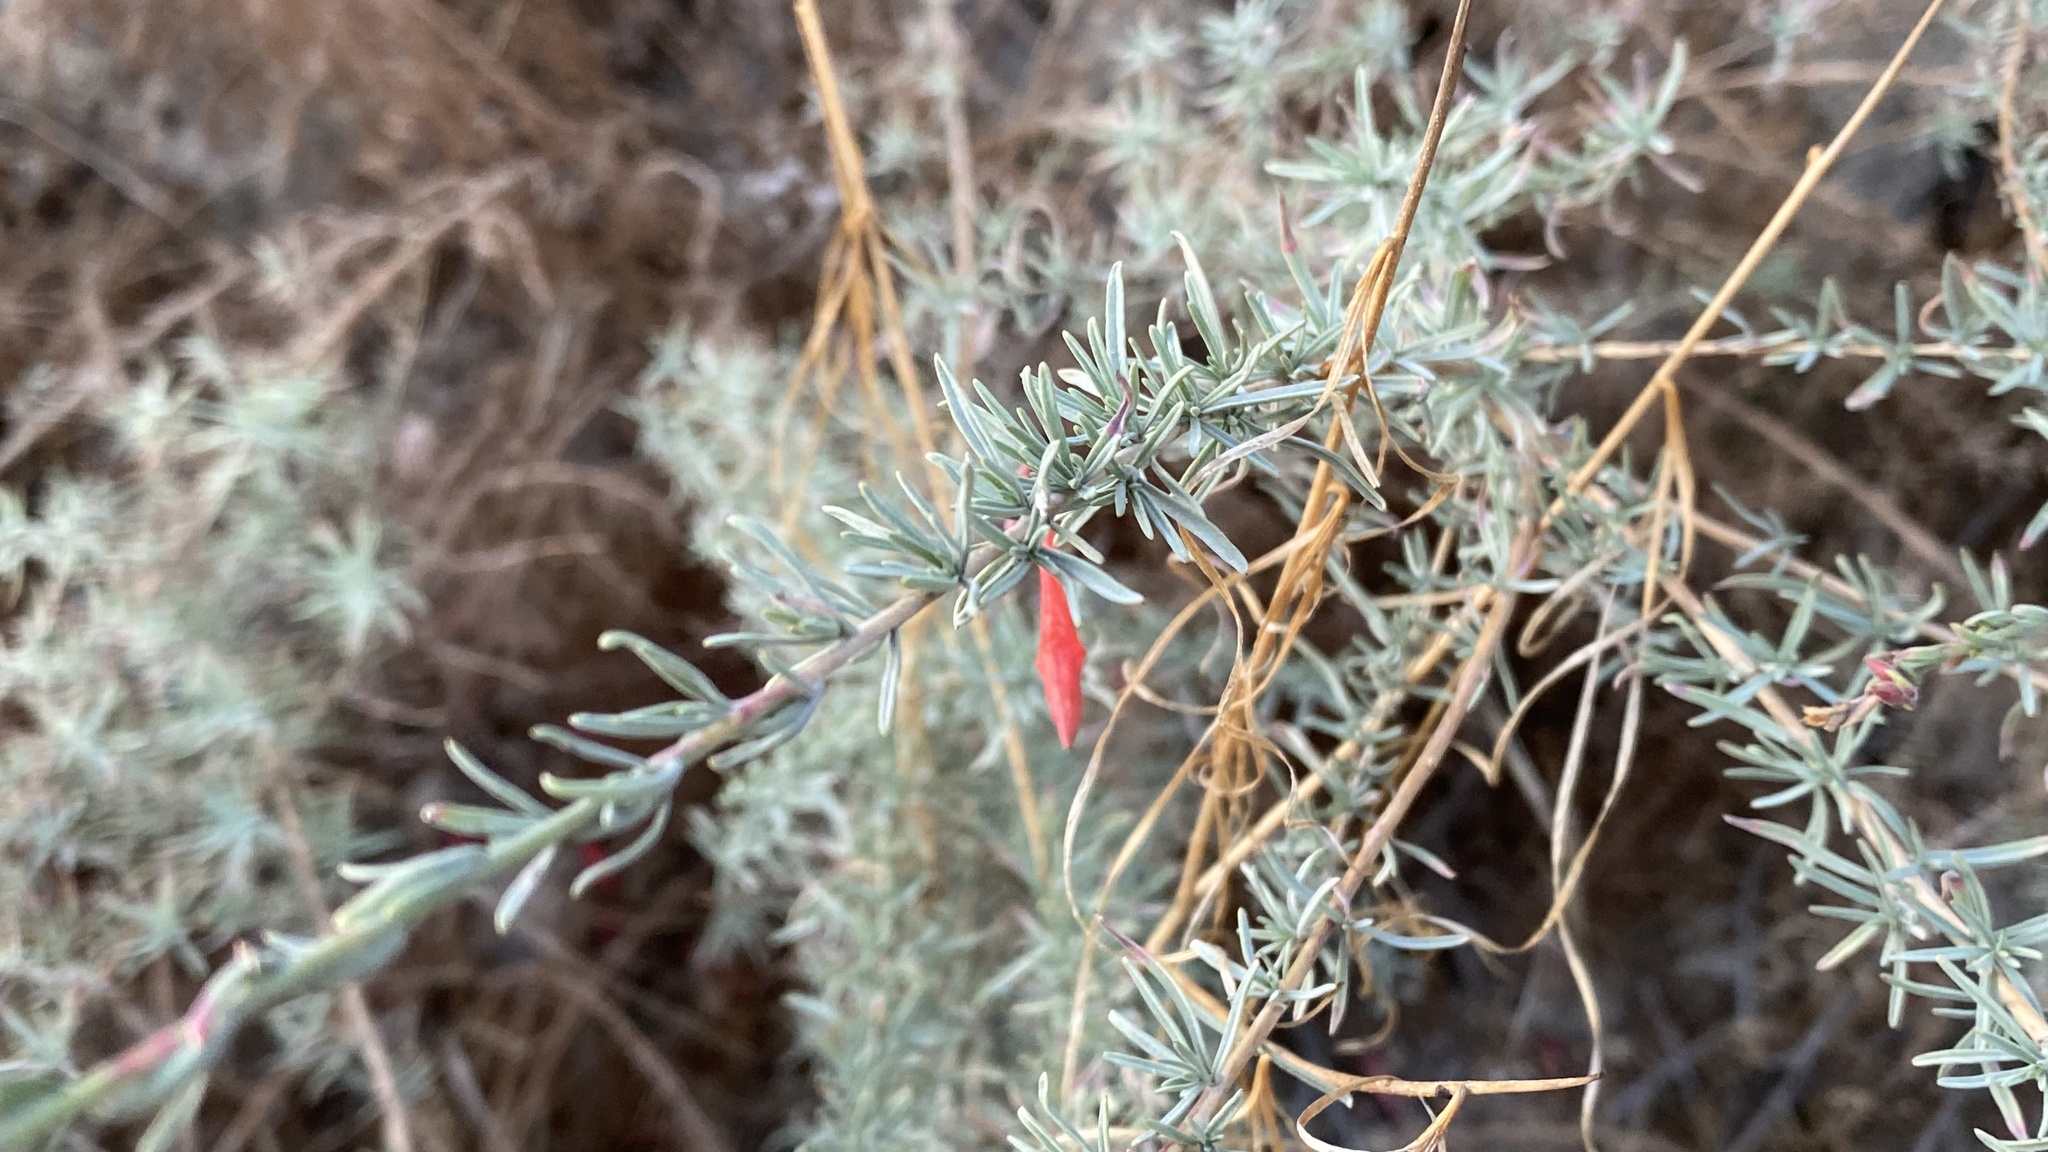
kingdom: Plantae
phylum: Tracheophyta
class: Magnoliopsida
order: Myrtales
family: Onagraceae
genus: Epilobium
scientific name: Epilobium canum
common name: California-fuchsia
